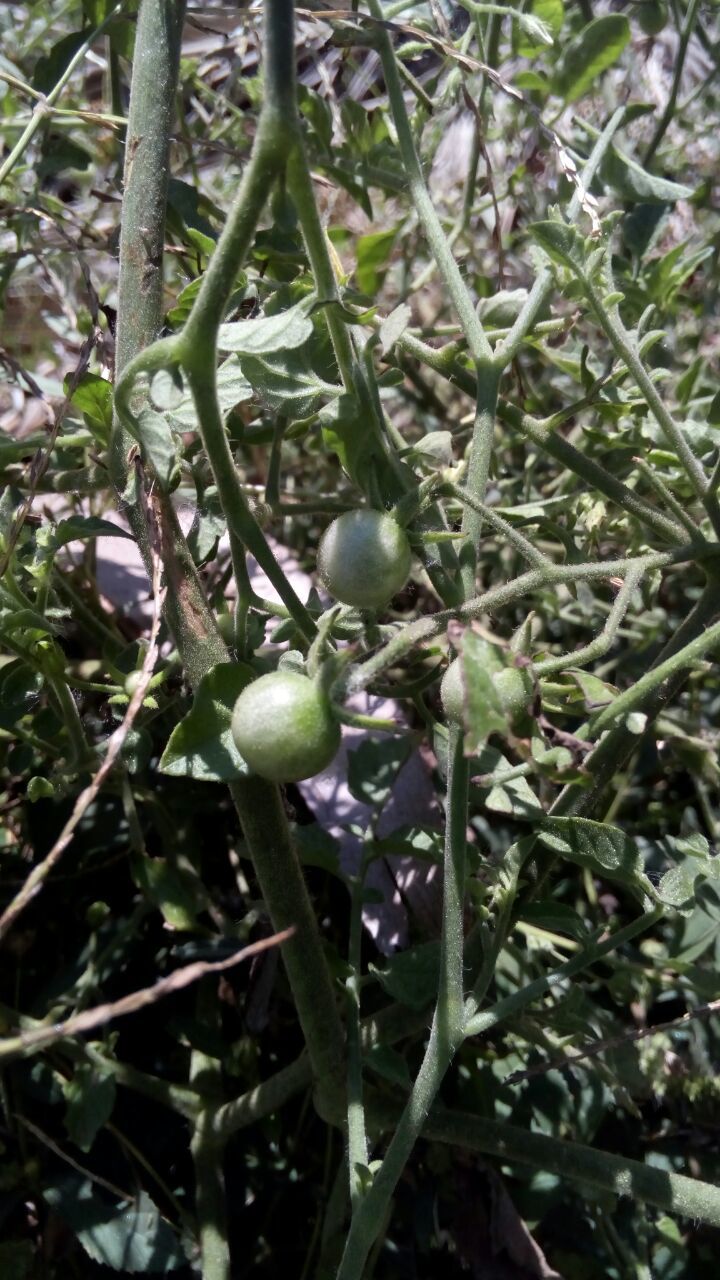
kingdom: Plantae
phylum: Tracheophyta
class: Magnoliopsida
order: Solanales
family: Solanaceae
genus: Solanum
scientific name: Solanum lycopersicum
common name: Garden tomato
